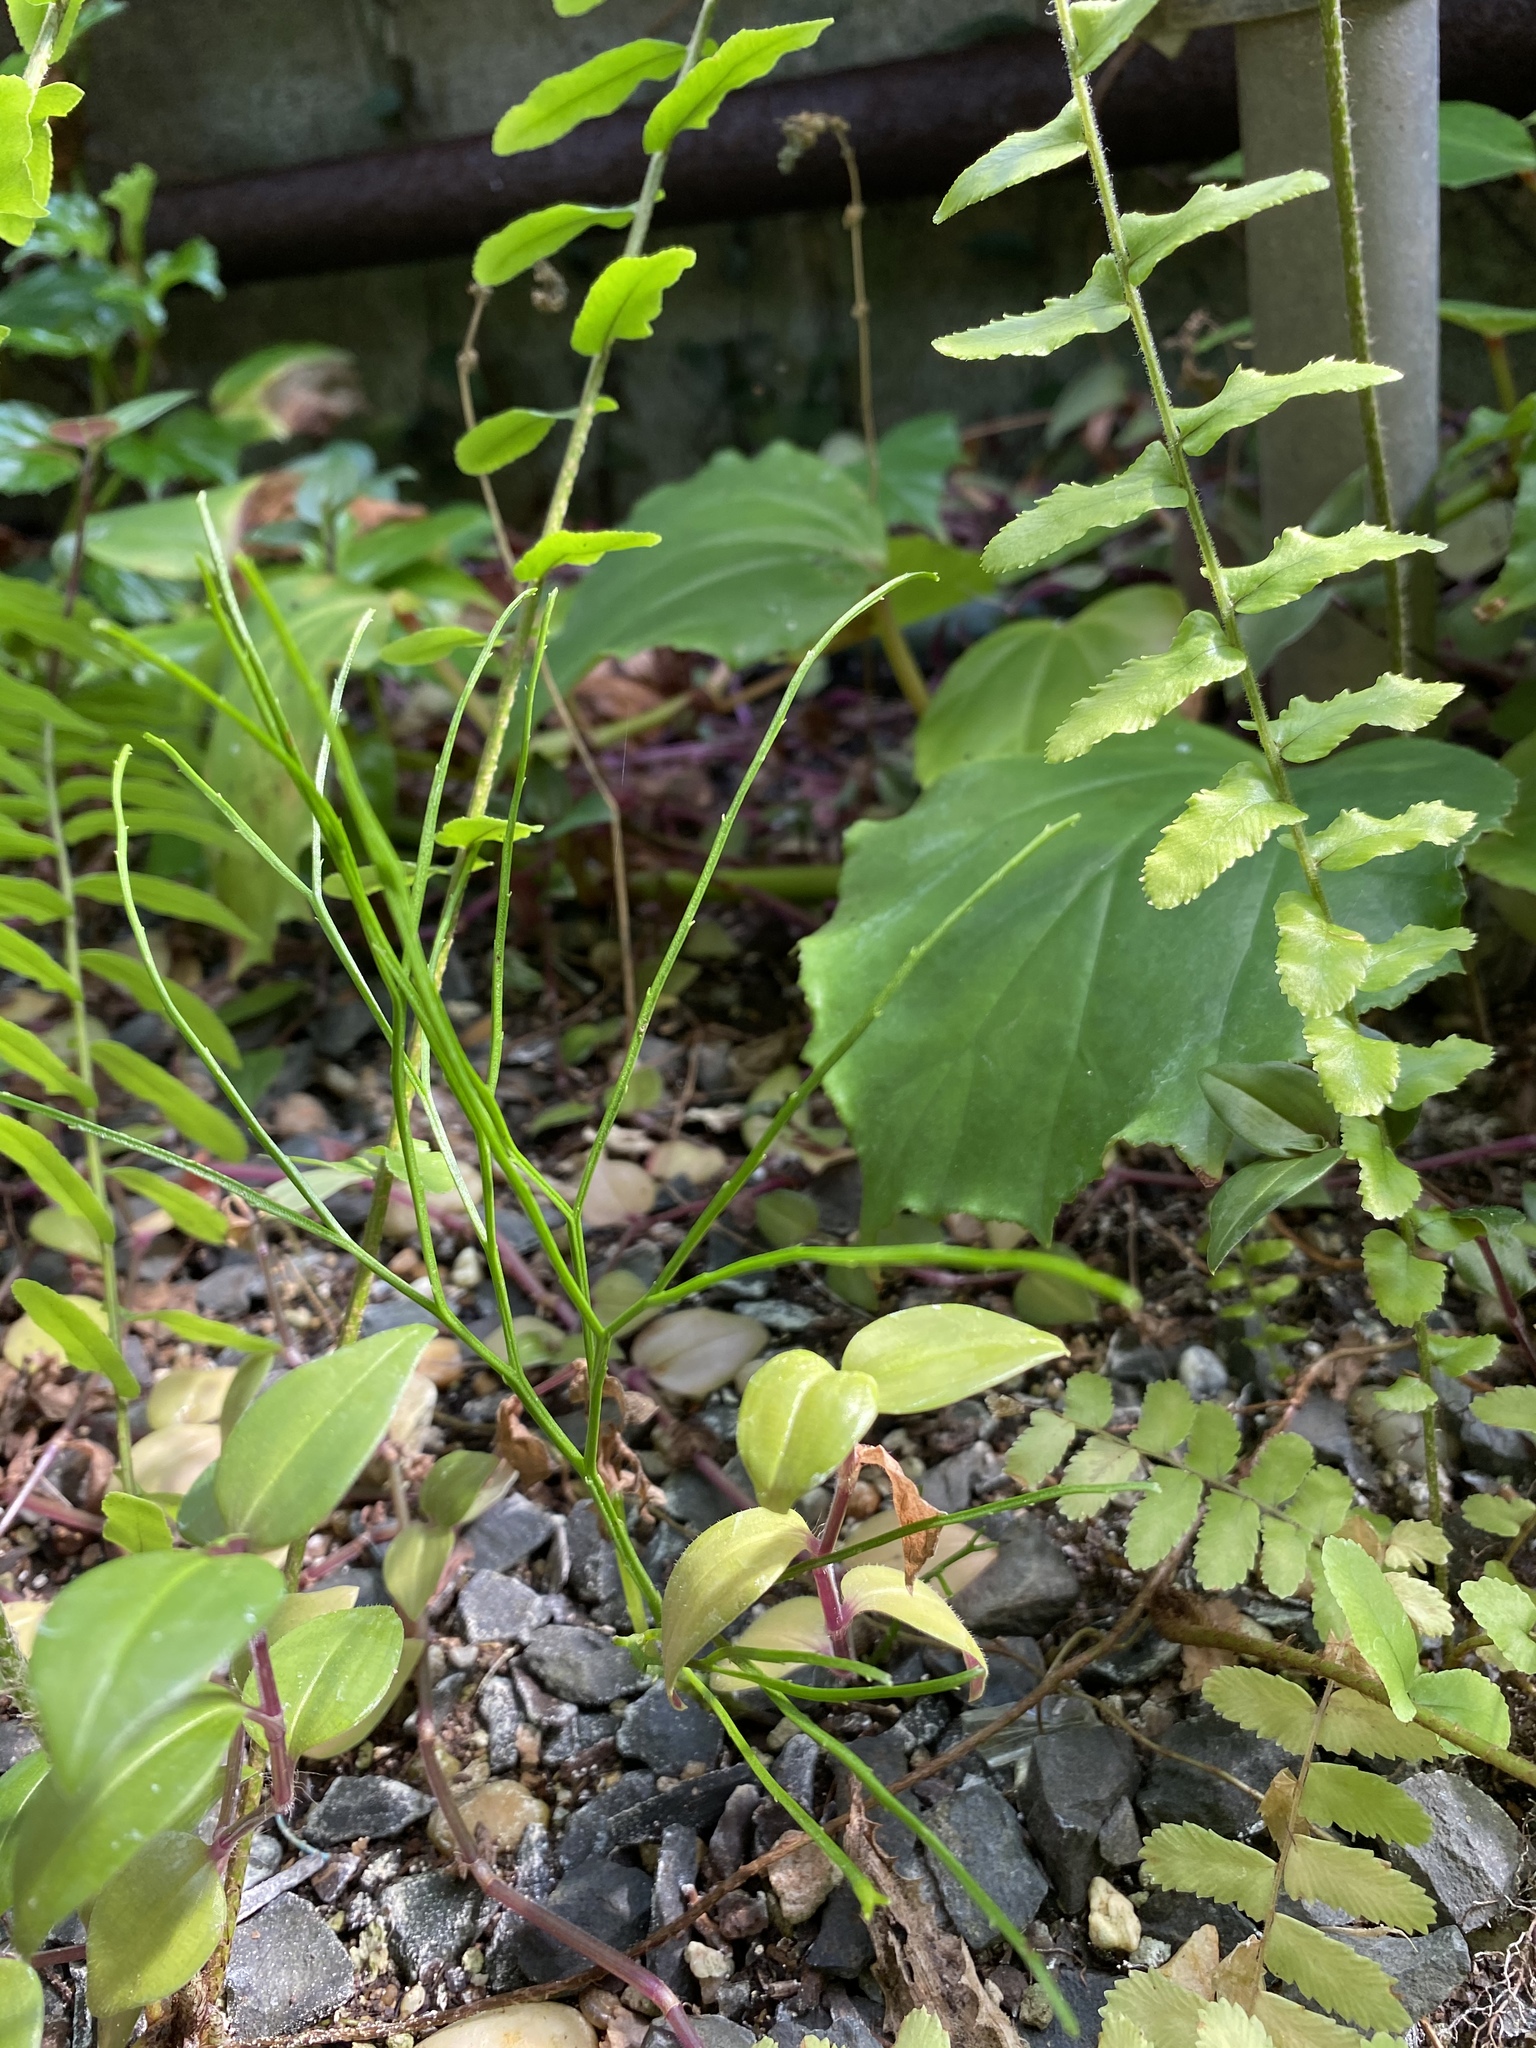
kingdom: Plantae
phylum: Tracheophyta
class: Polypodiopsida
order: Psilotales
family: Psilotaceae
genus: Psilotum
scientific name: Psilotum nudum
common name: Skeleton fork fern
